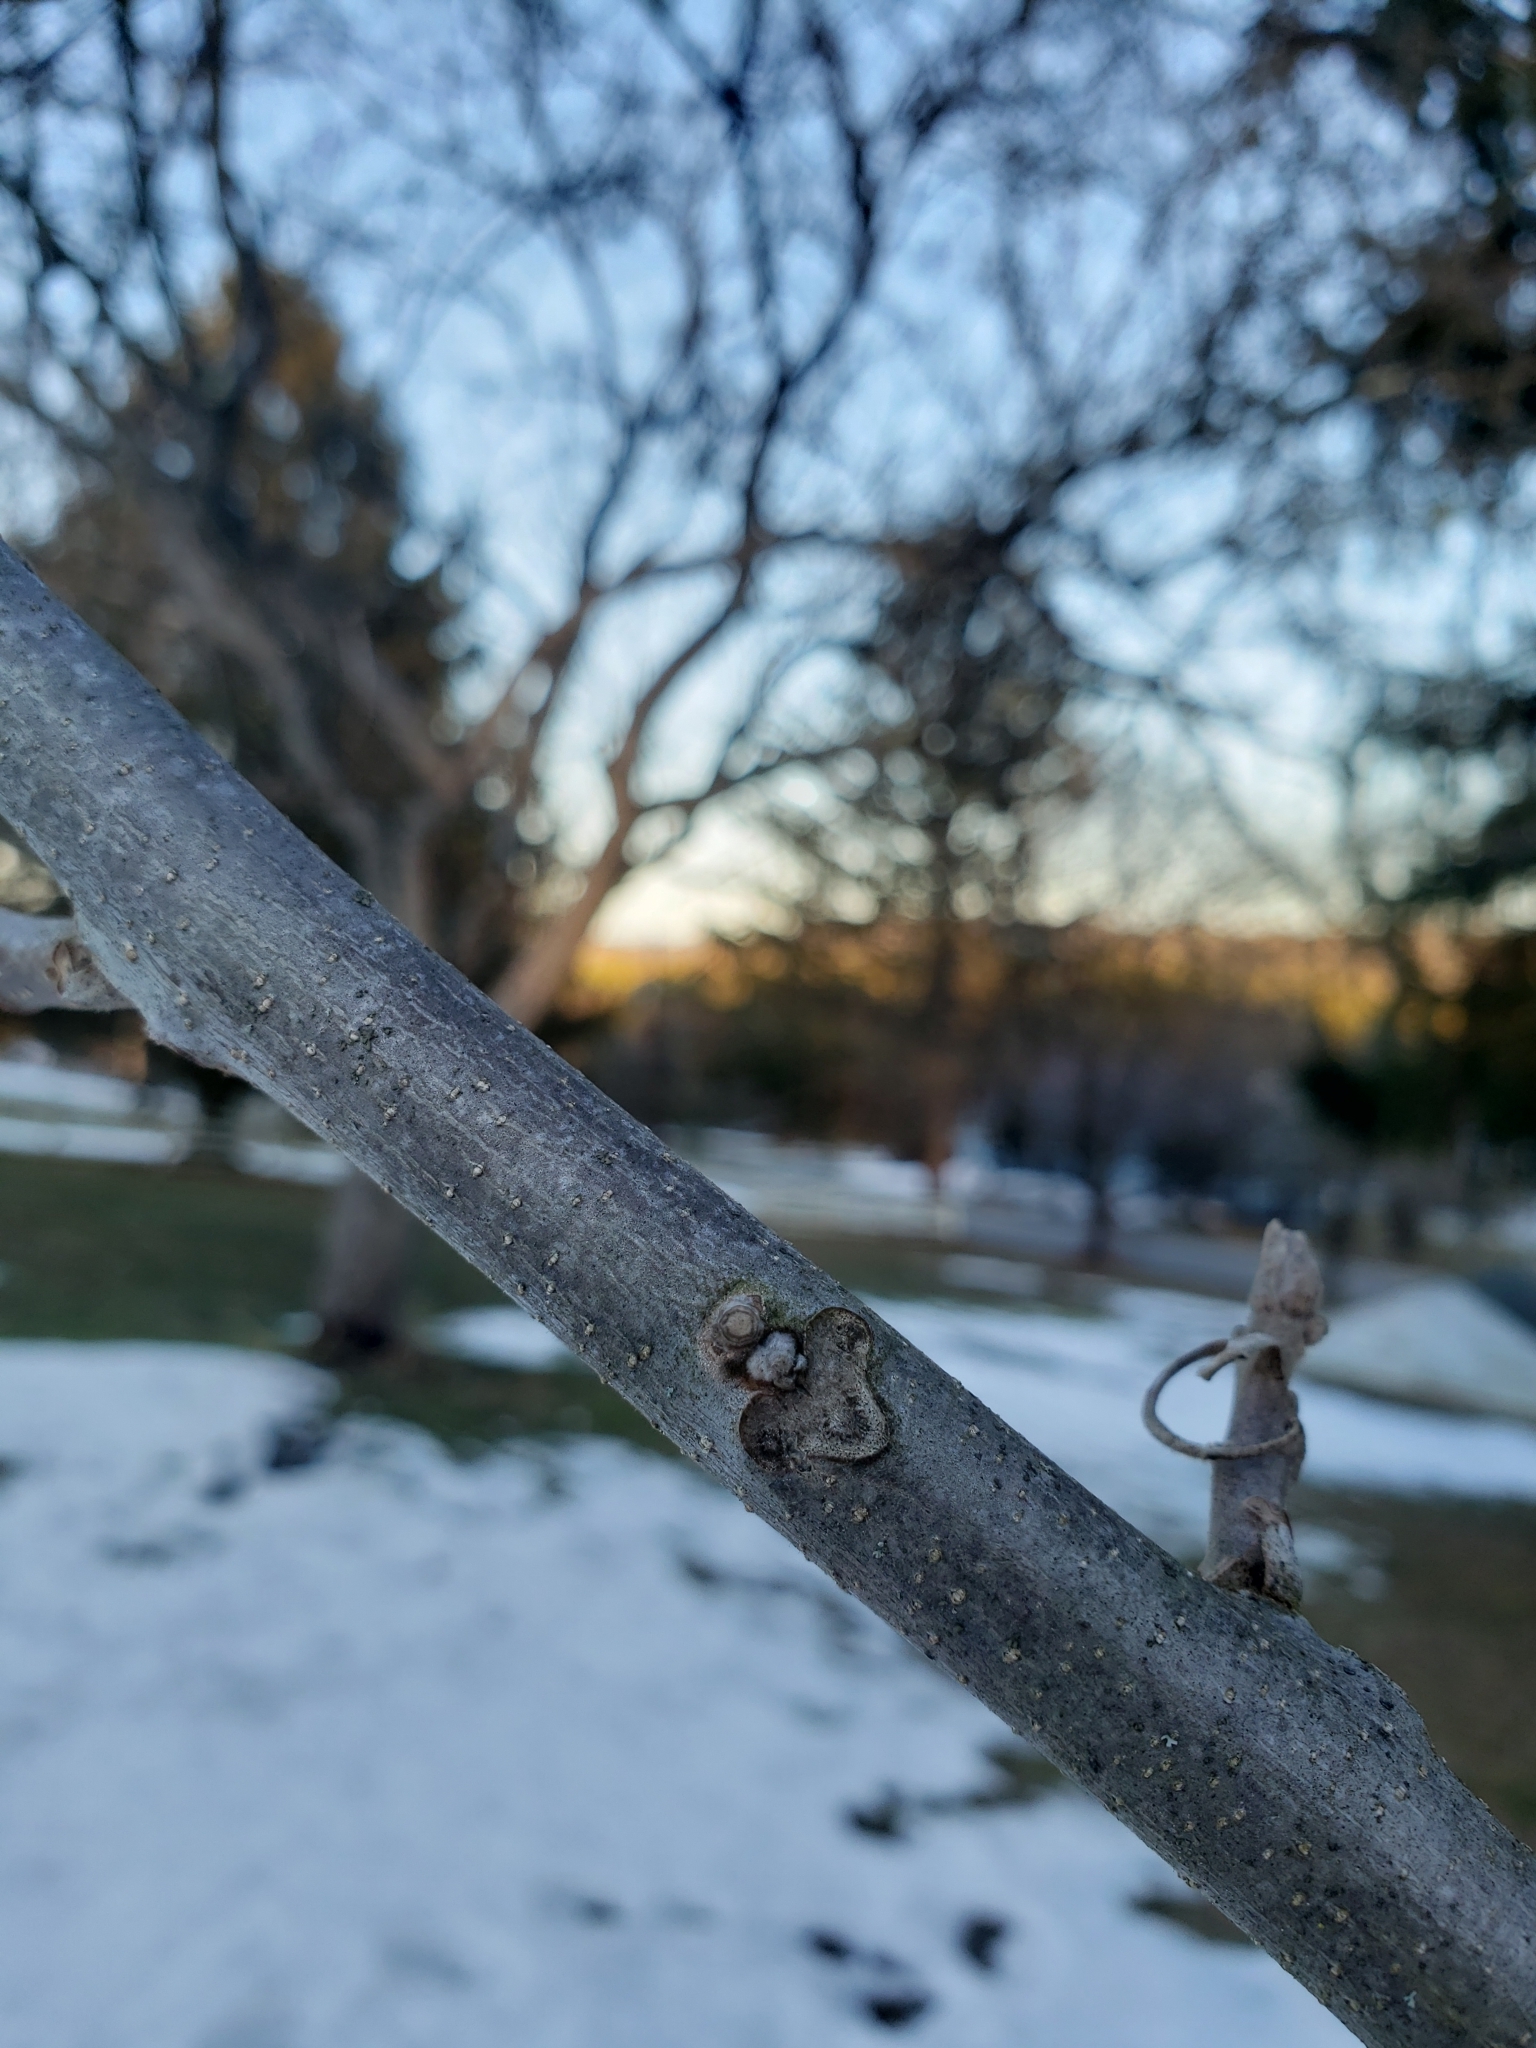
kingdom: Plantae
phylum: Tracheophyta
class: Magnoliopsida
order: Fagales
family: Juglandaceae
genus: Juglans
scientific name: Juglans nigra
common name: Black walnut
